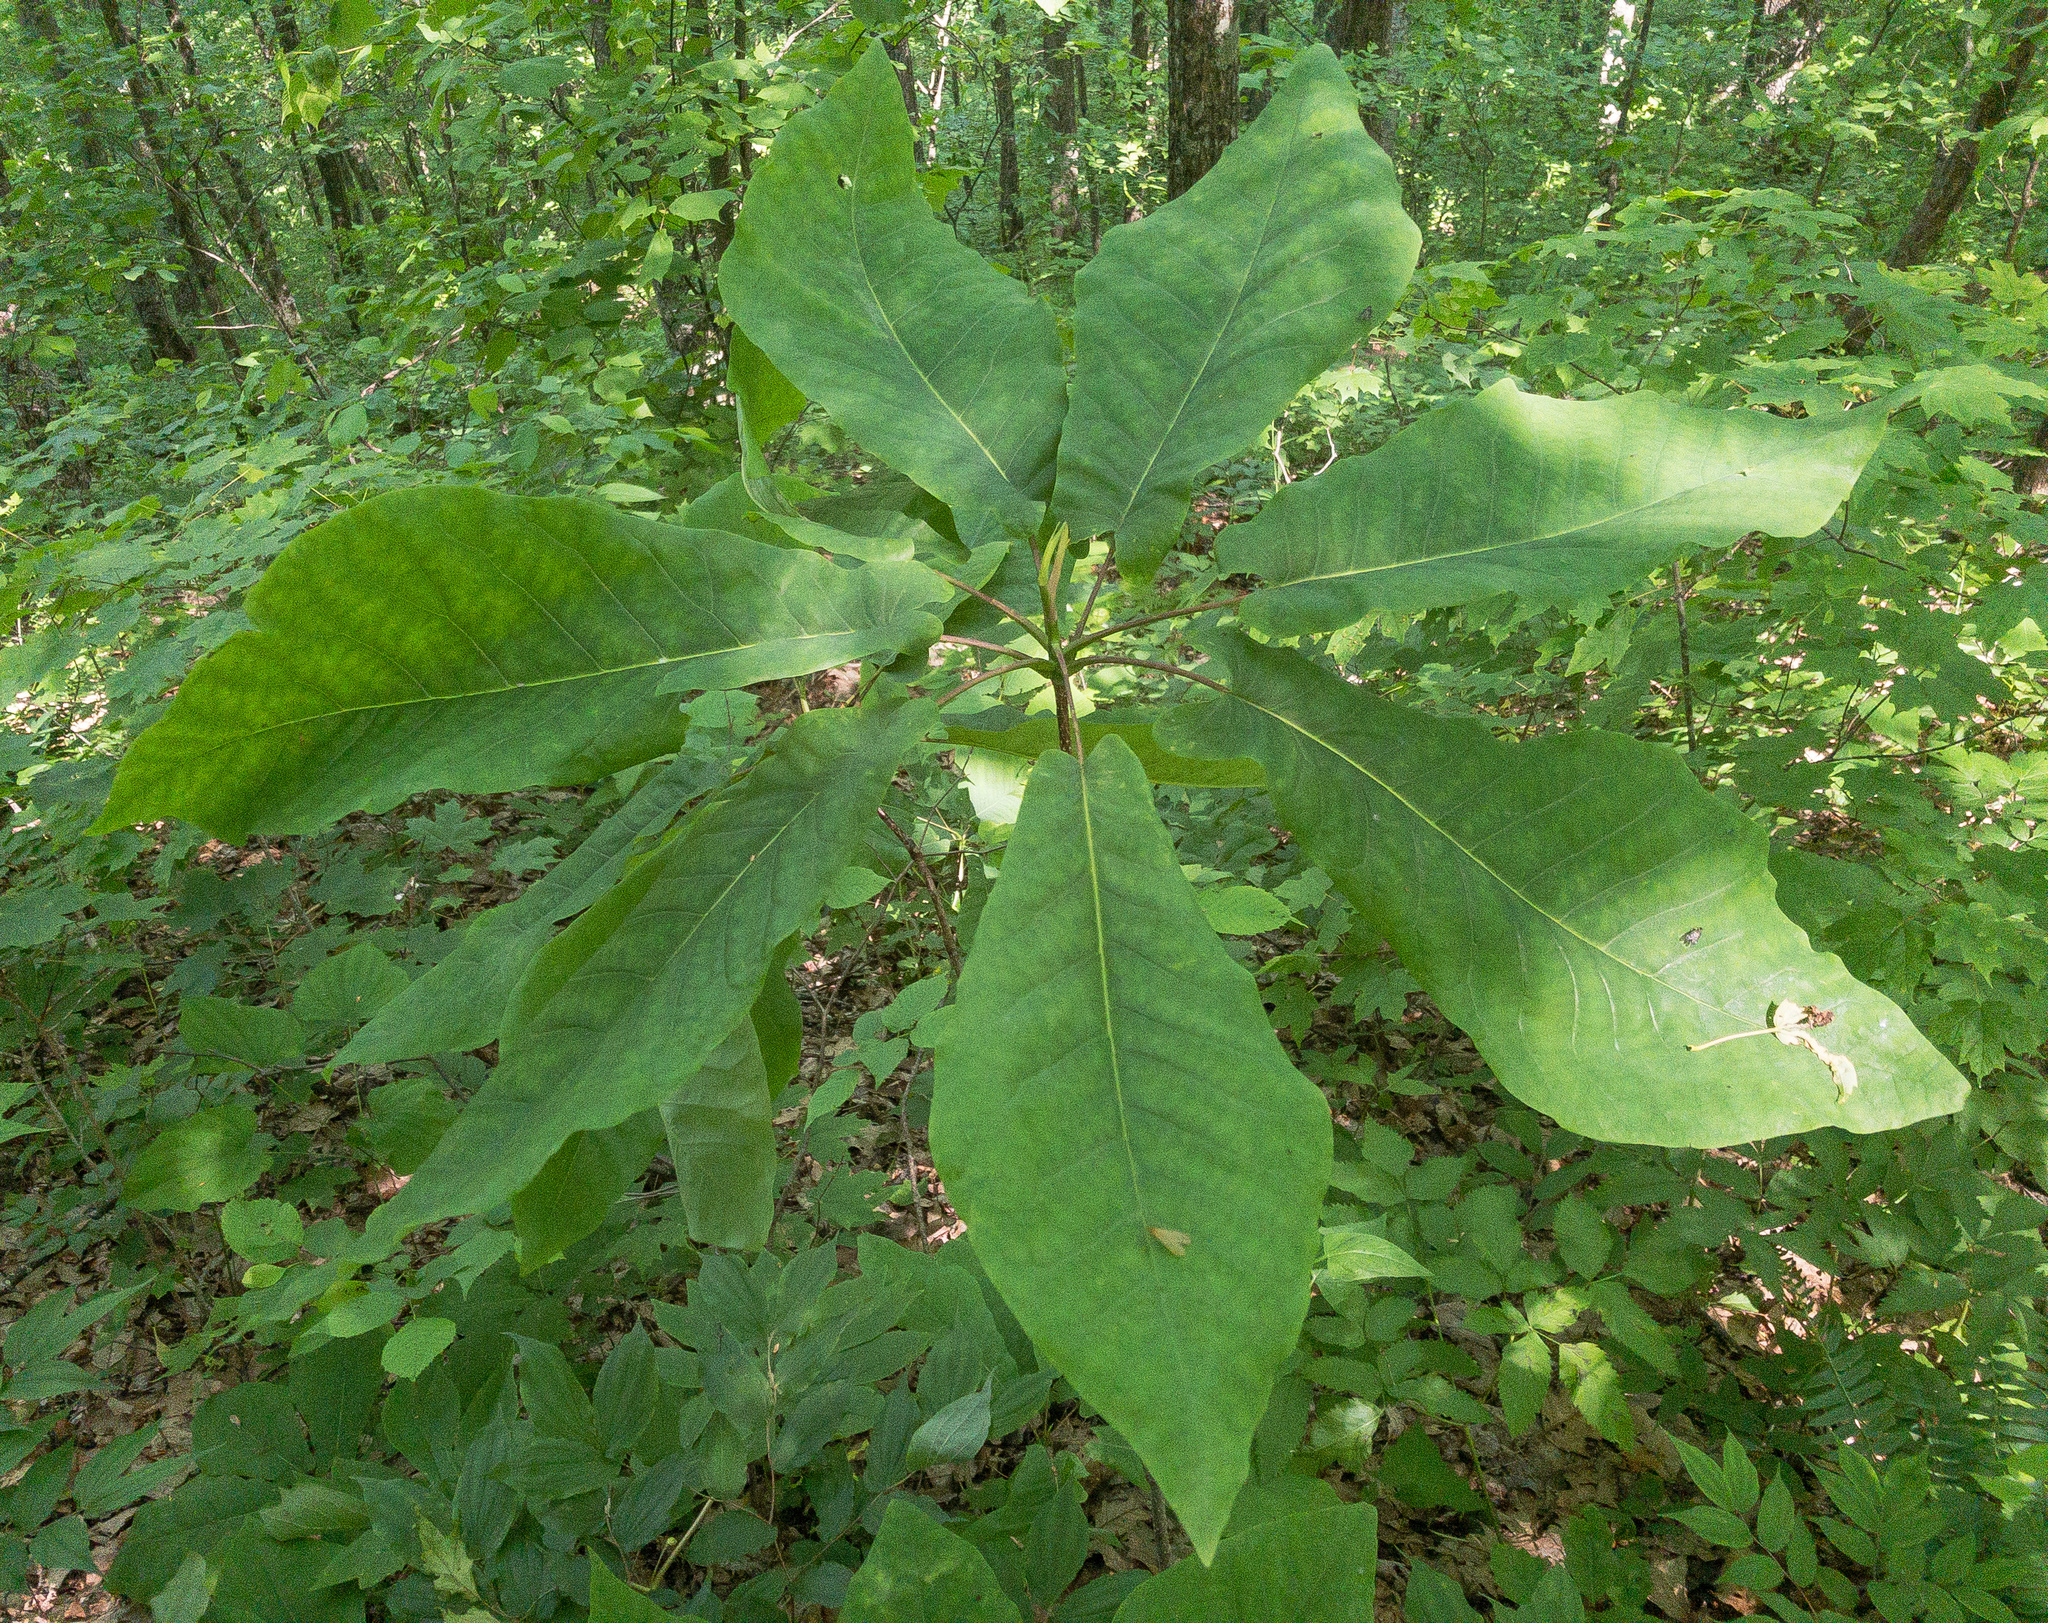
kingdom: Plantae
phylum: Tracheophyta
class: Magnoliopsida
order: Magnoliales
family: Magnoliaceae
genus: Magnolia
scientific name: Magnolia fraseri
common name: Fraser's magnolia
